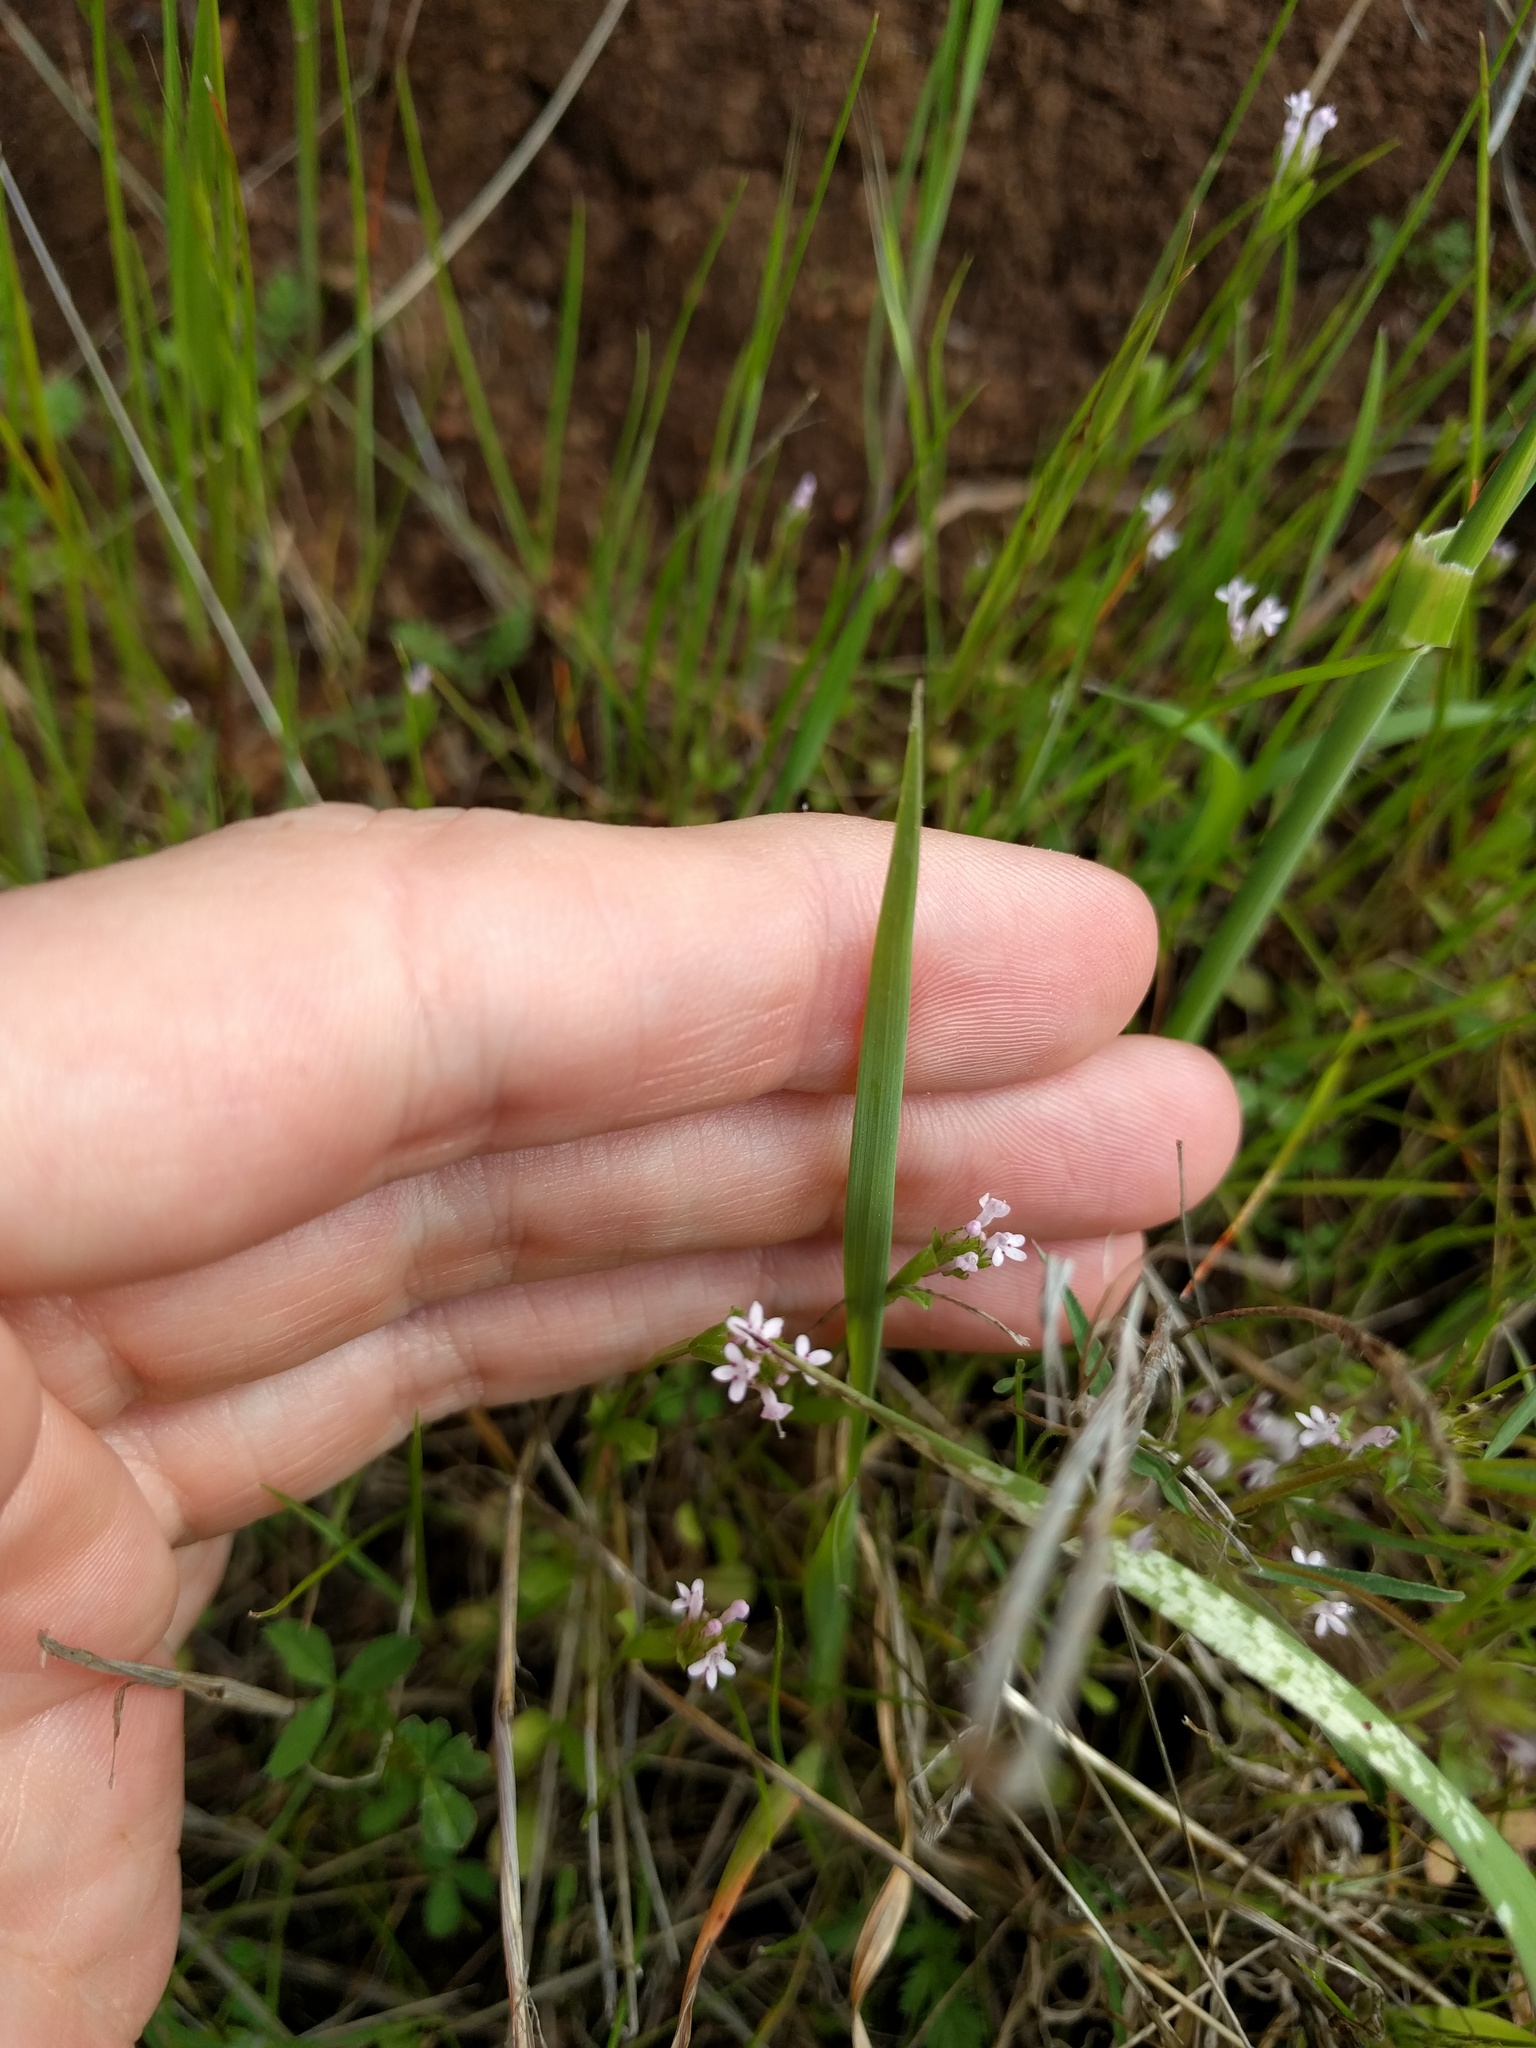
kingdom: Plantae
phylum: Tracheophyta
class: Magnoliopsida
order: Dipsacales
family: Caprifoliaceae
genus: Plectritis
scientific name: Plectritis ciliosa
